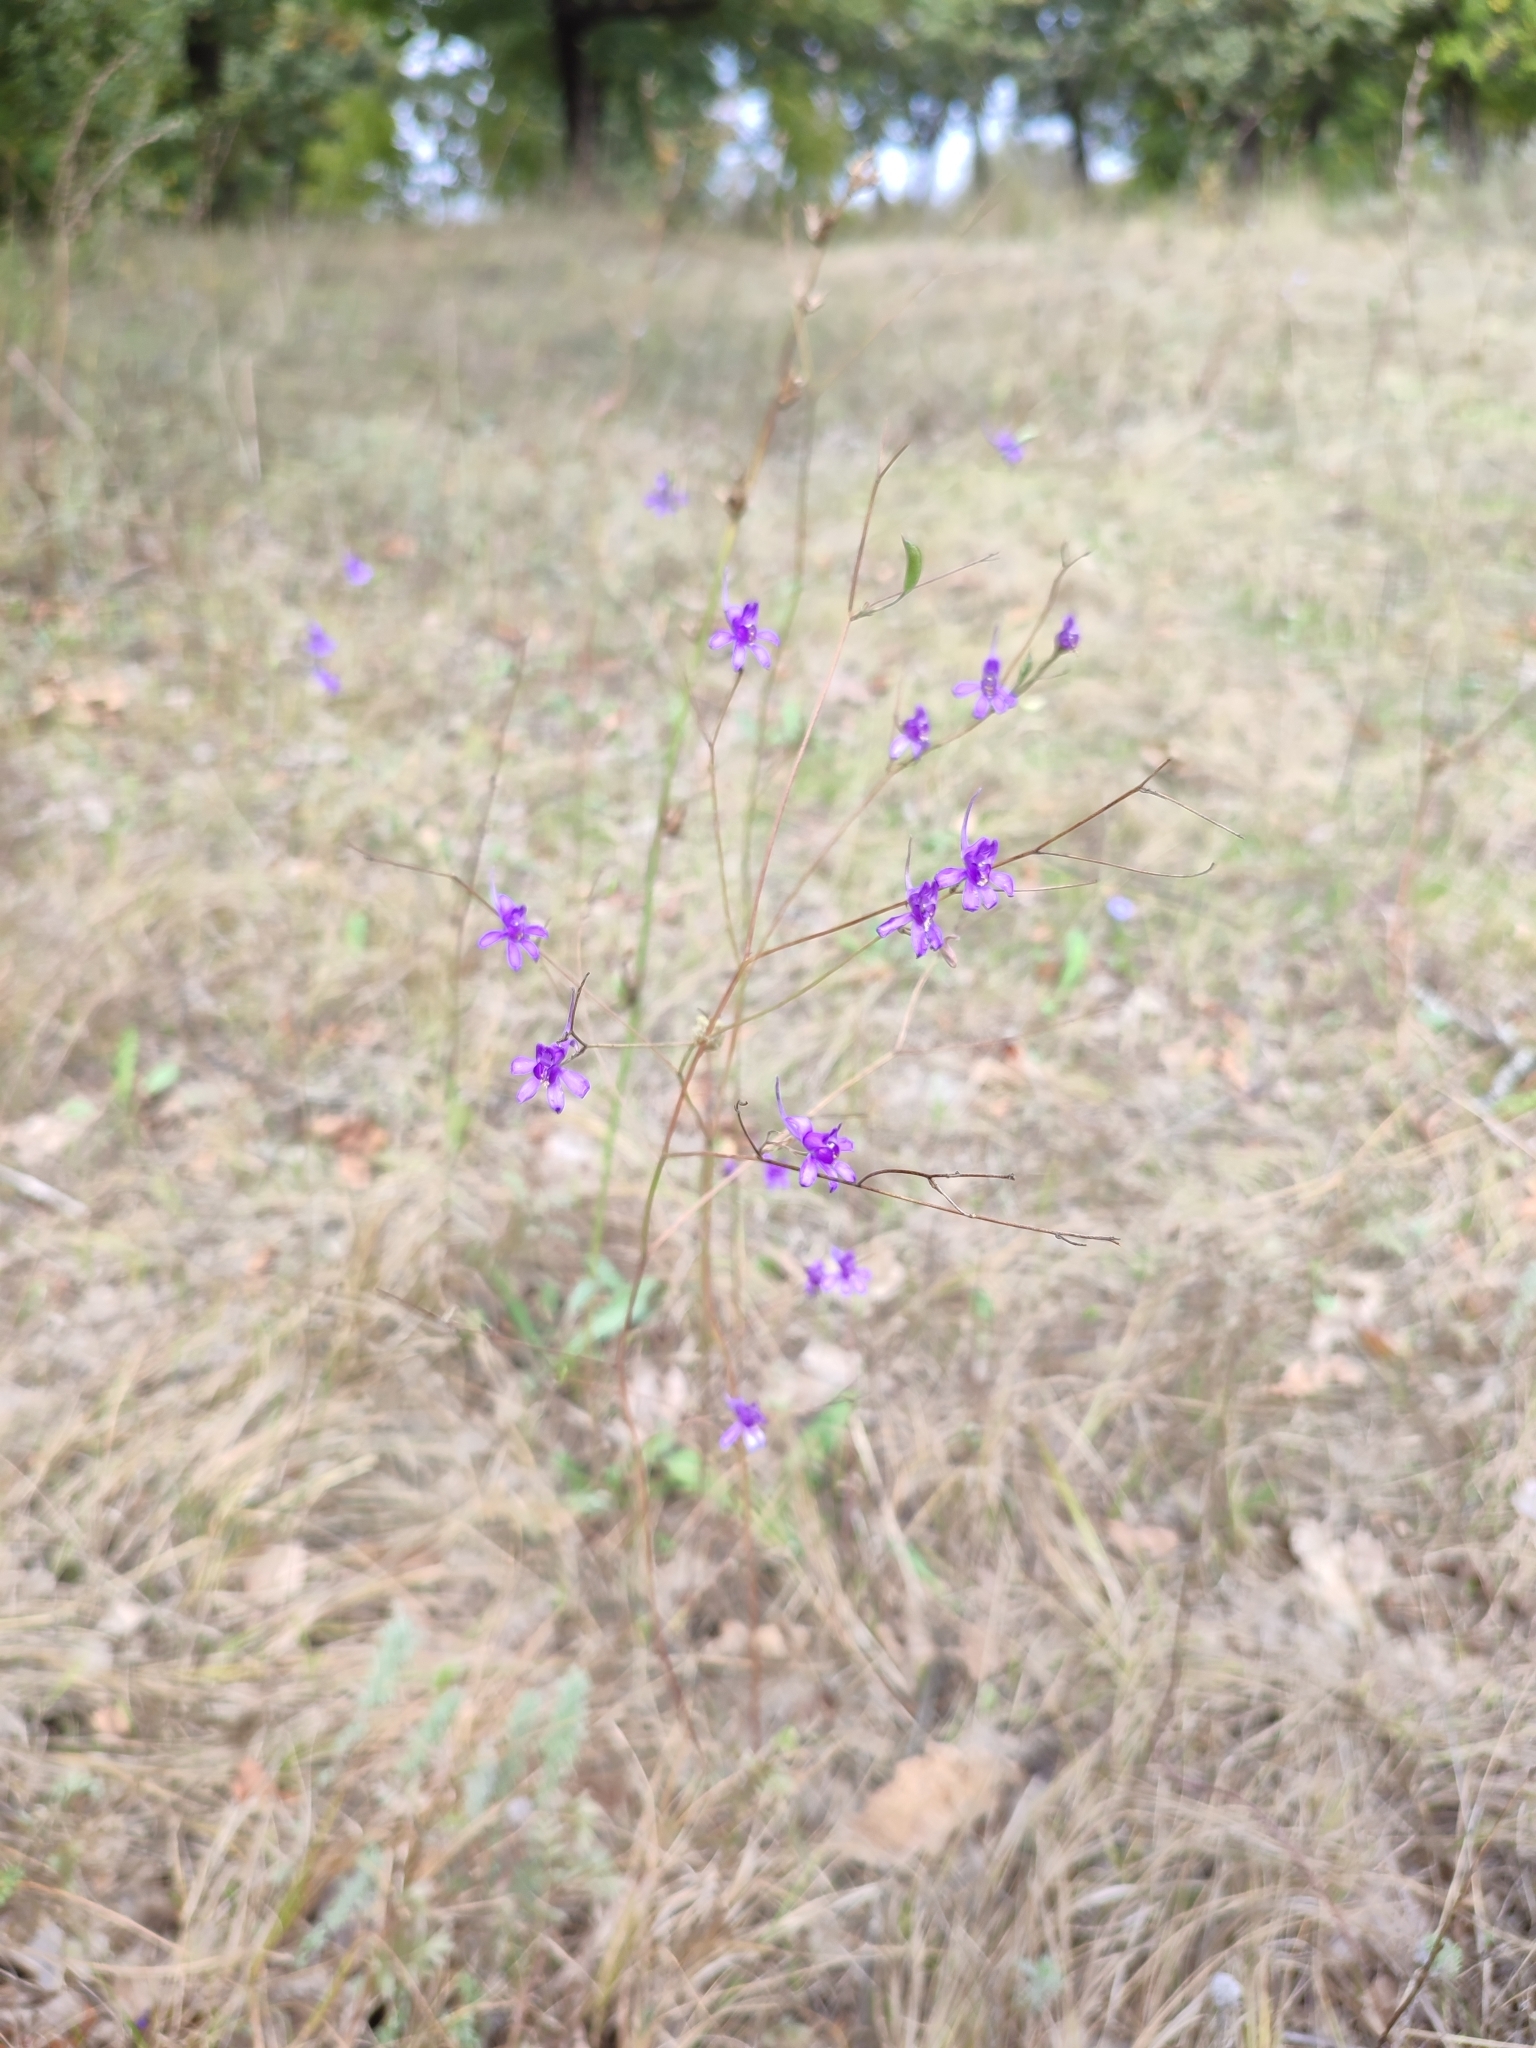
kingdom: Plantae
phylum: Tracheophyta
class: Magnoliopsida
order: Ranunculales
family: Ranunculaceae
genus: Delphinium
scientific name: Delphinium consolida
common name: Branching larkspur
